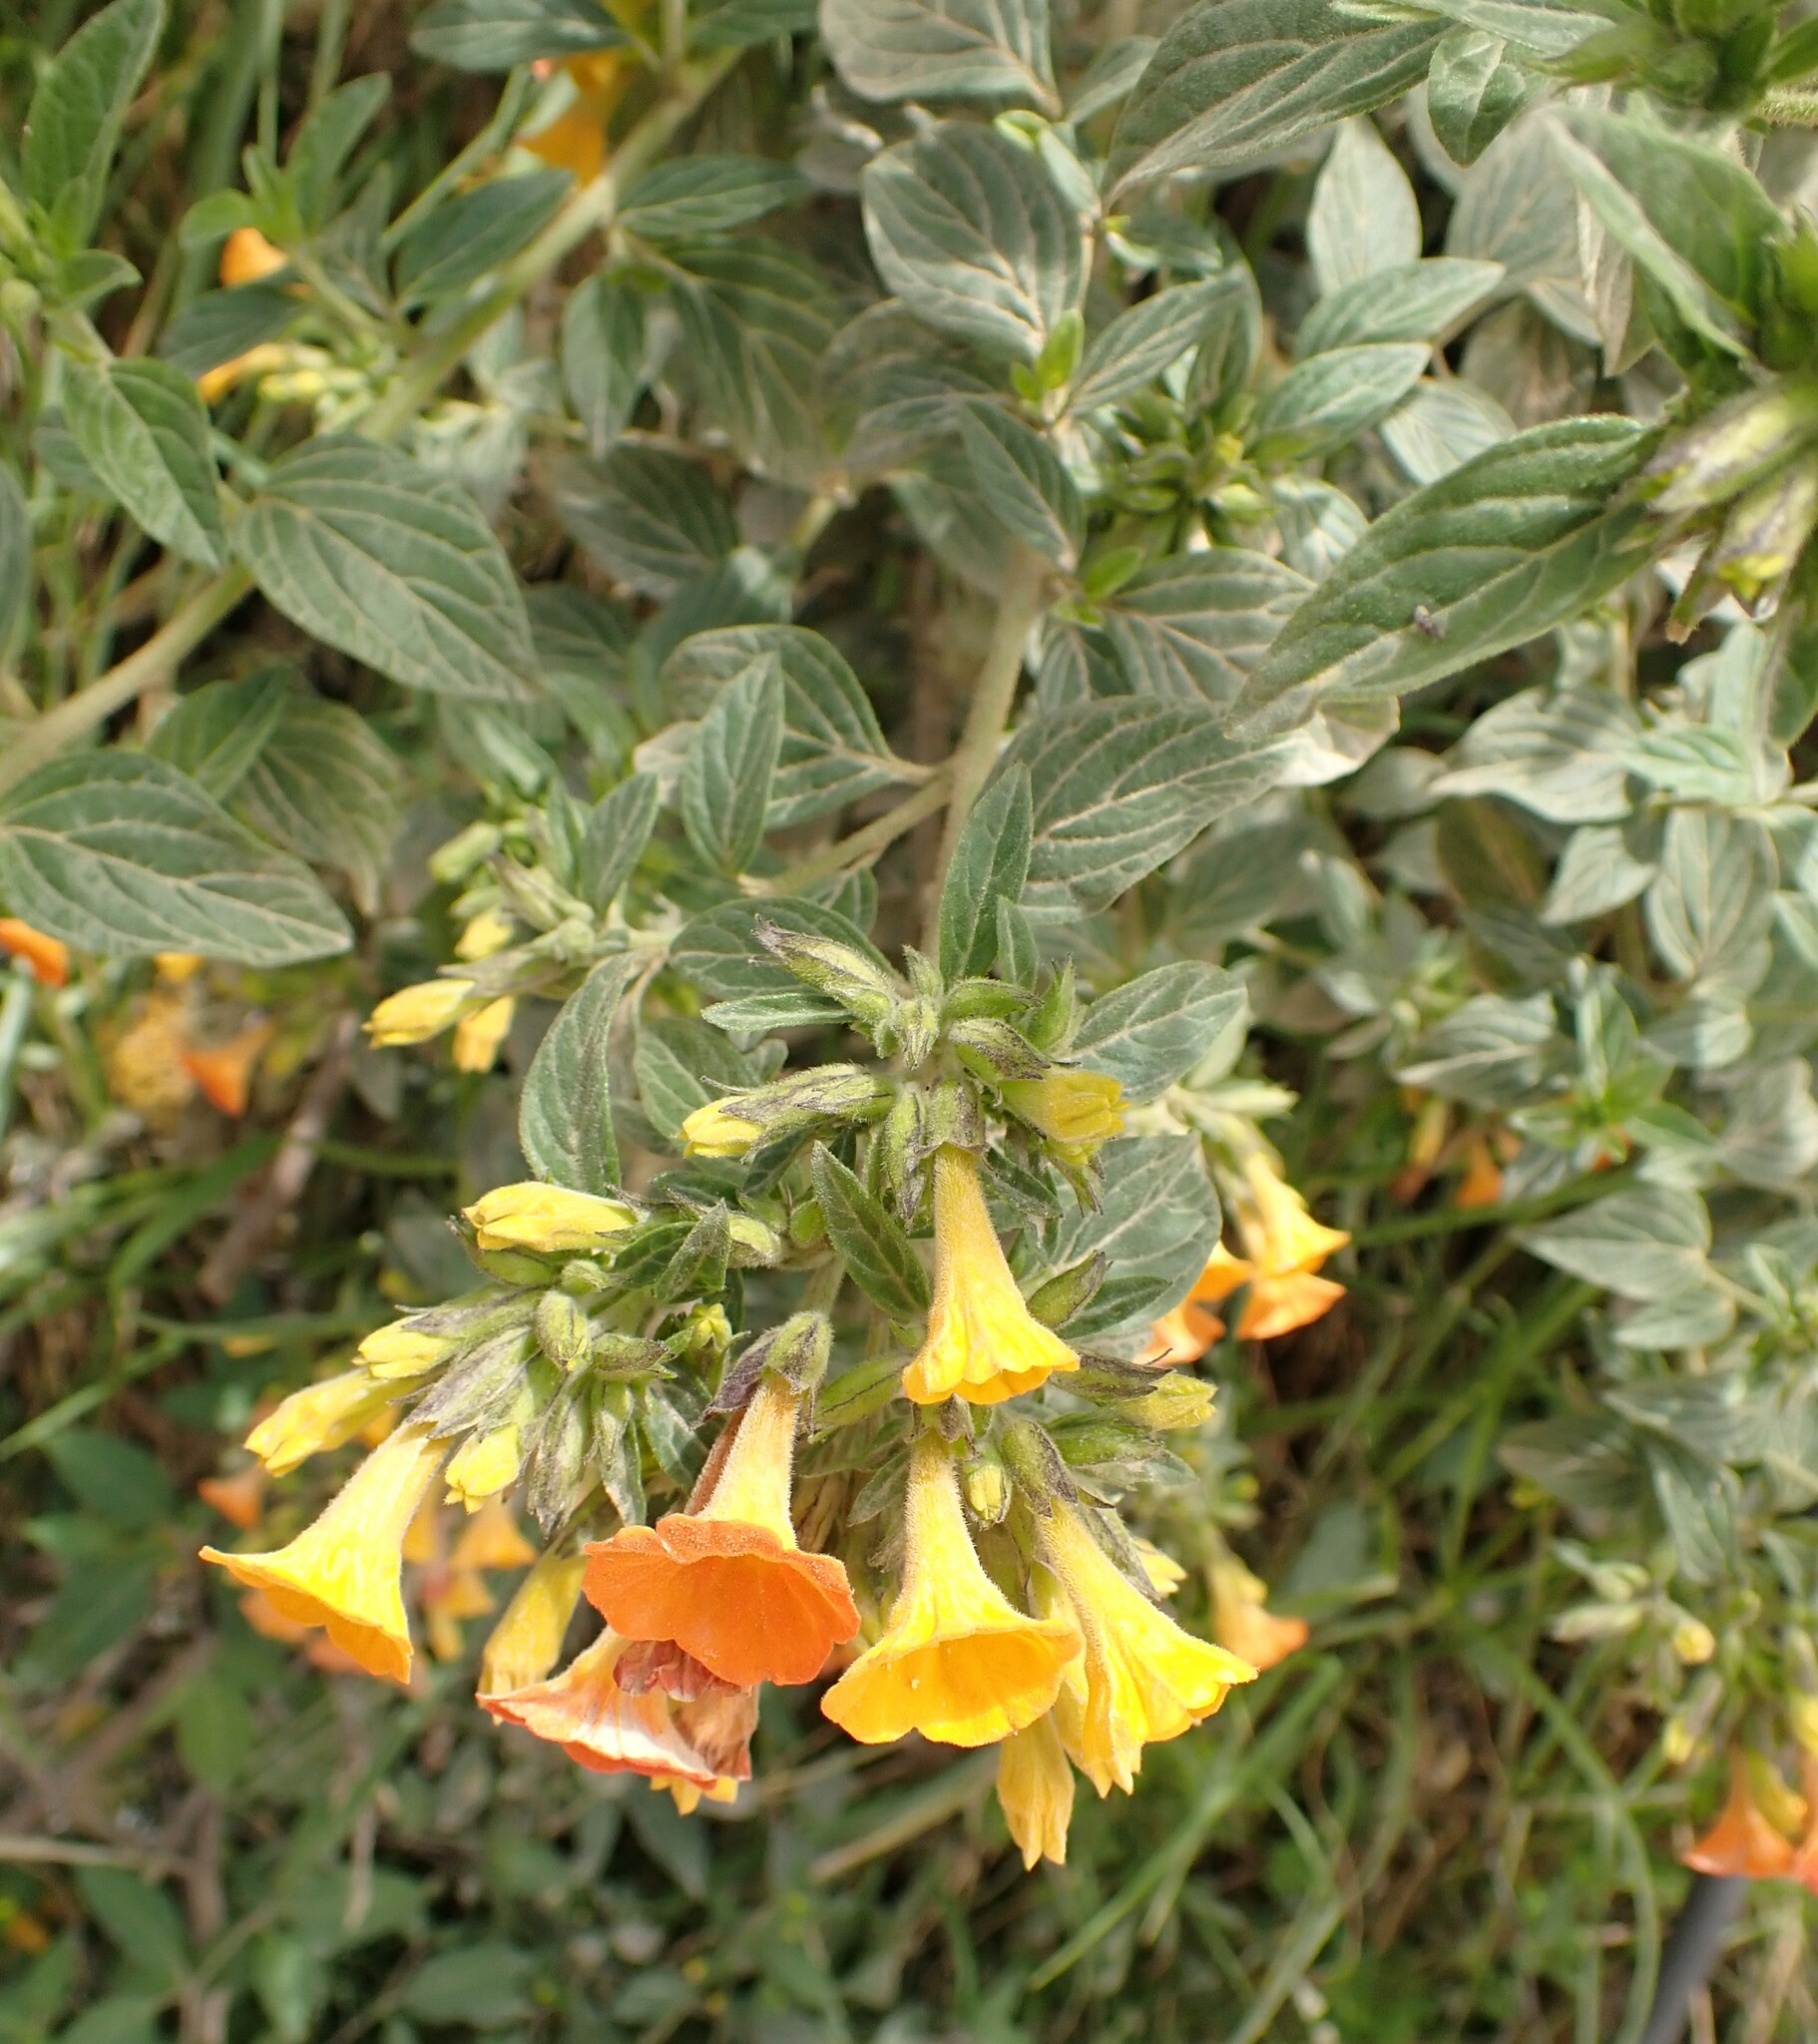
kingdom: Plantae
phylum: Tracheophyta
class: Magnoliopsida
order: Solanales
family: Solanaceae
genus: Streptosolen
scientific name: Streptosolen jamesonii
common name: Marmalade bush
